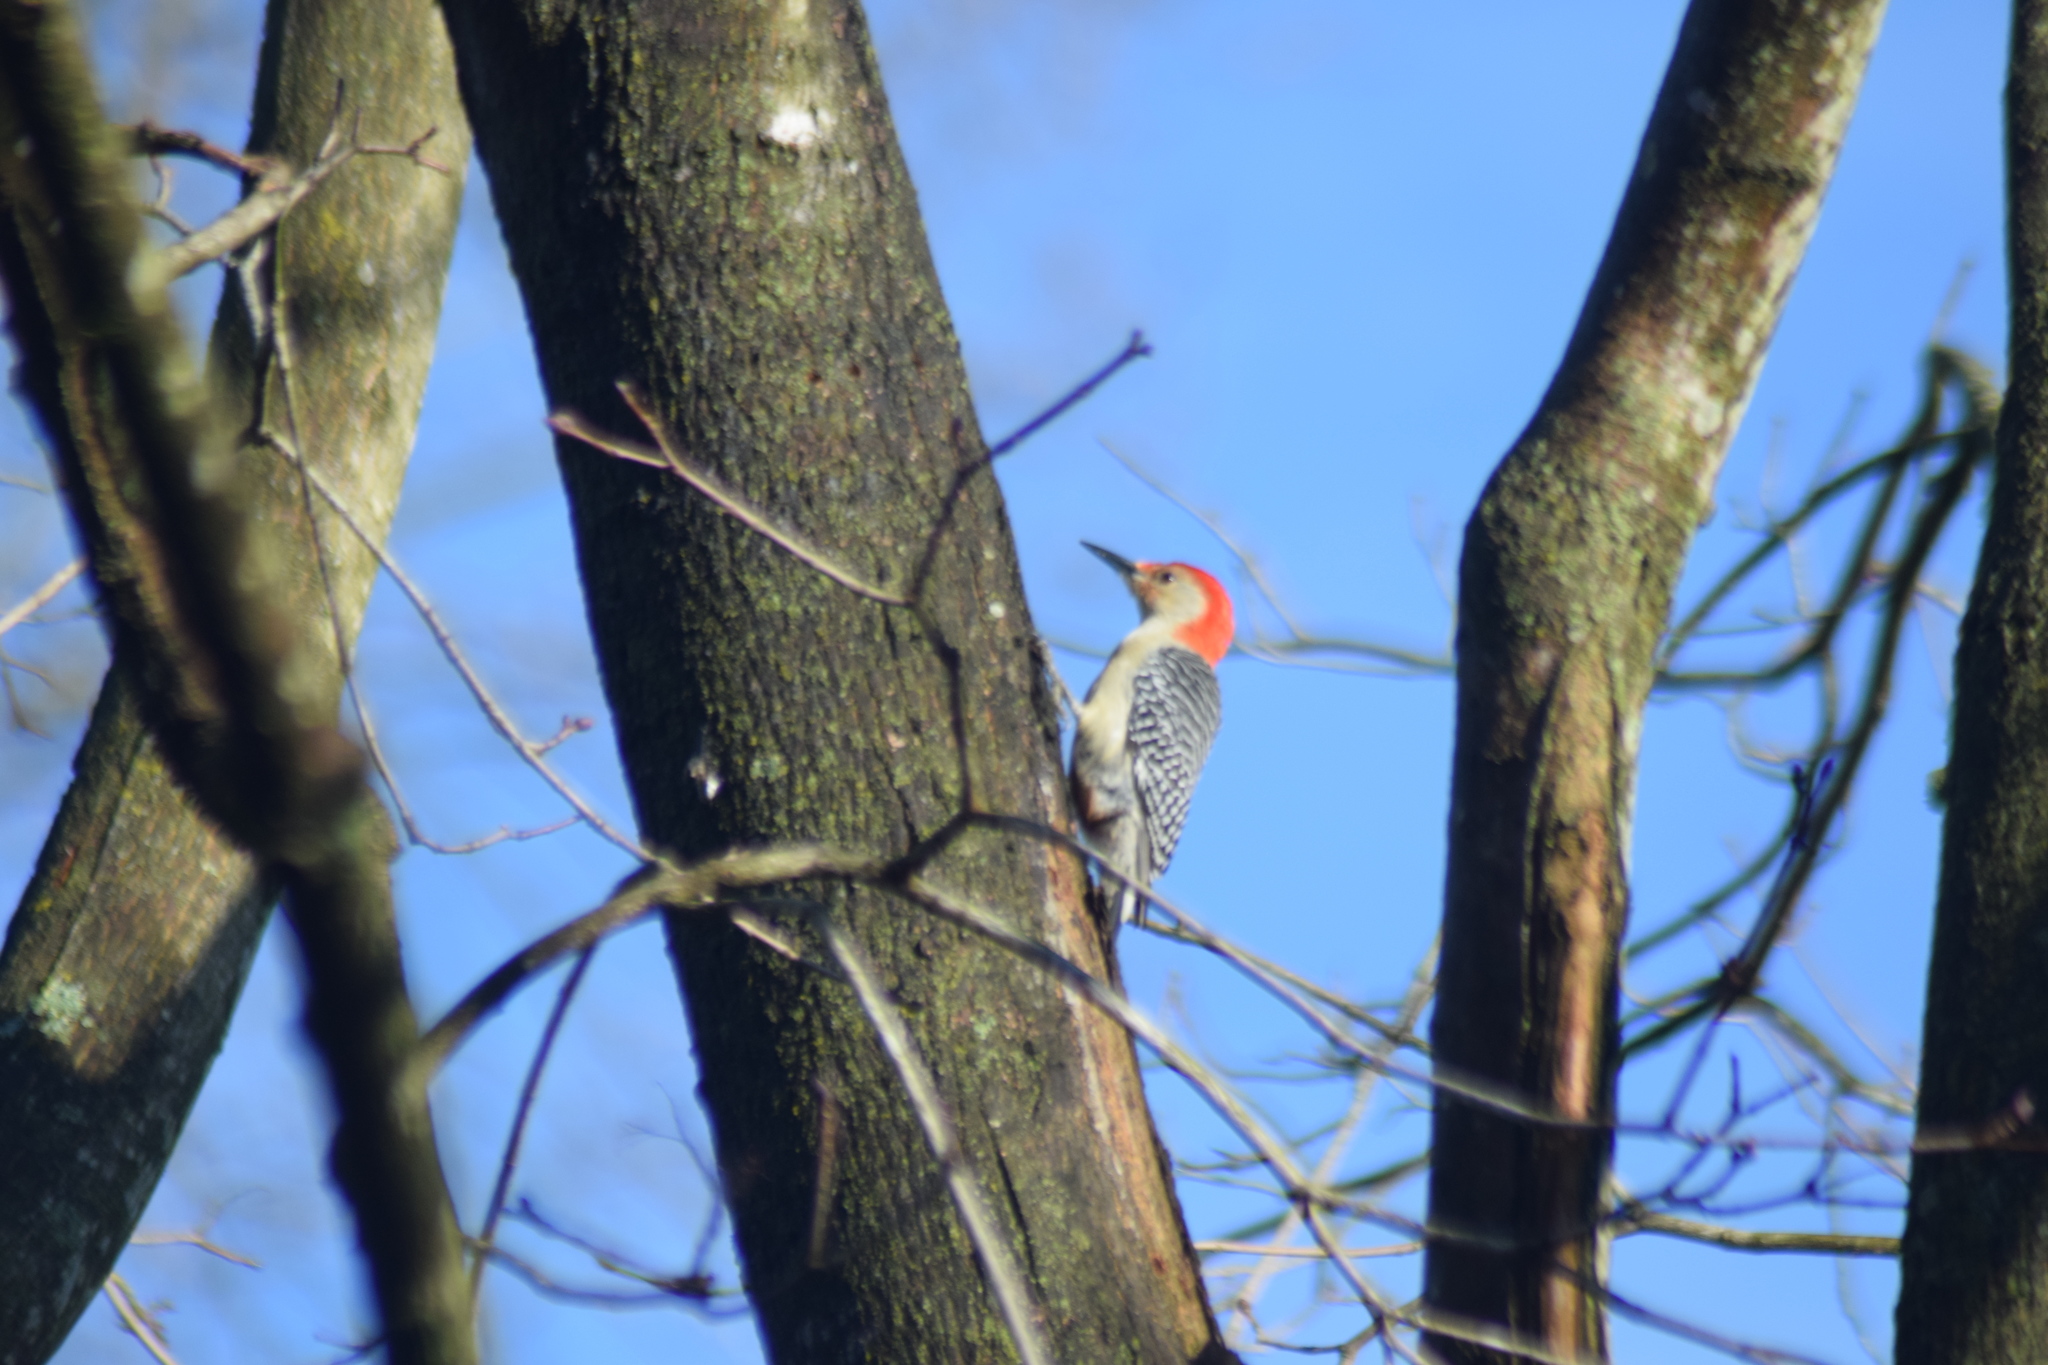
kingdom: Animalia
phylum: Chordata
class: Aves
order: Piciformes
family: Picidae
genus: Melanerpes
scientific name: Melanerpes carolinus
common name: Red-bellied woodpecker
